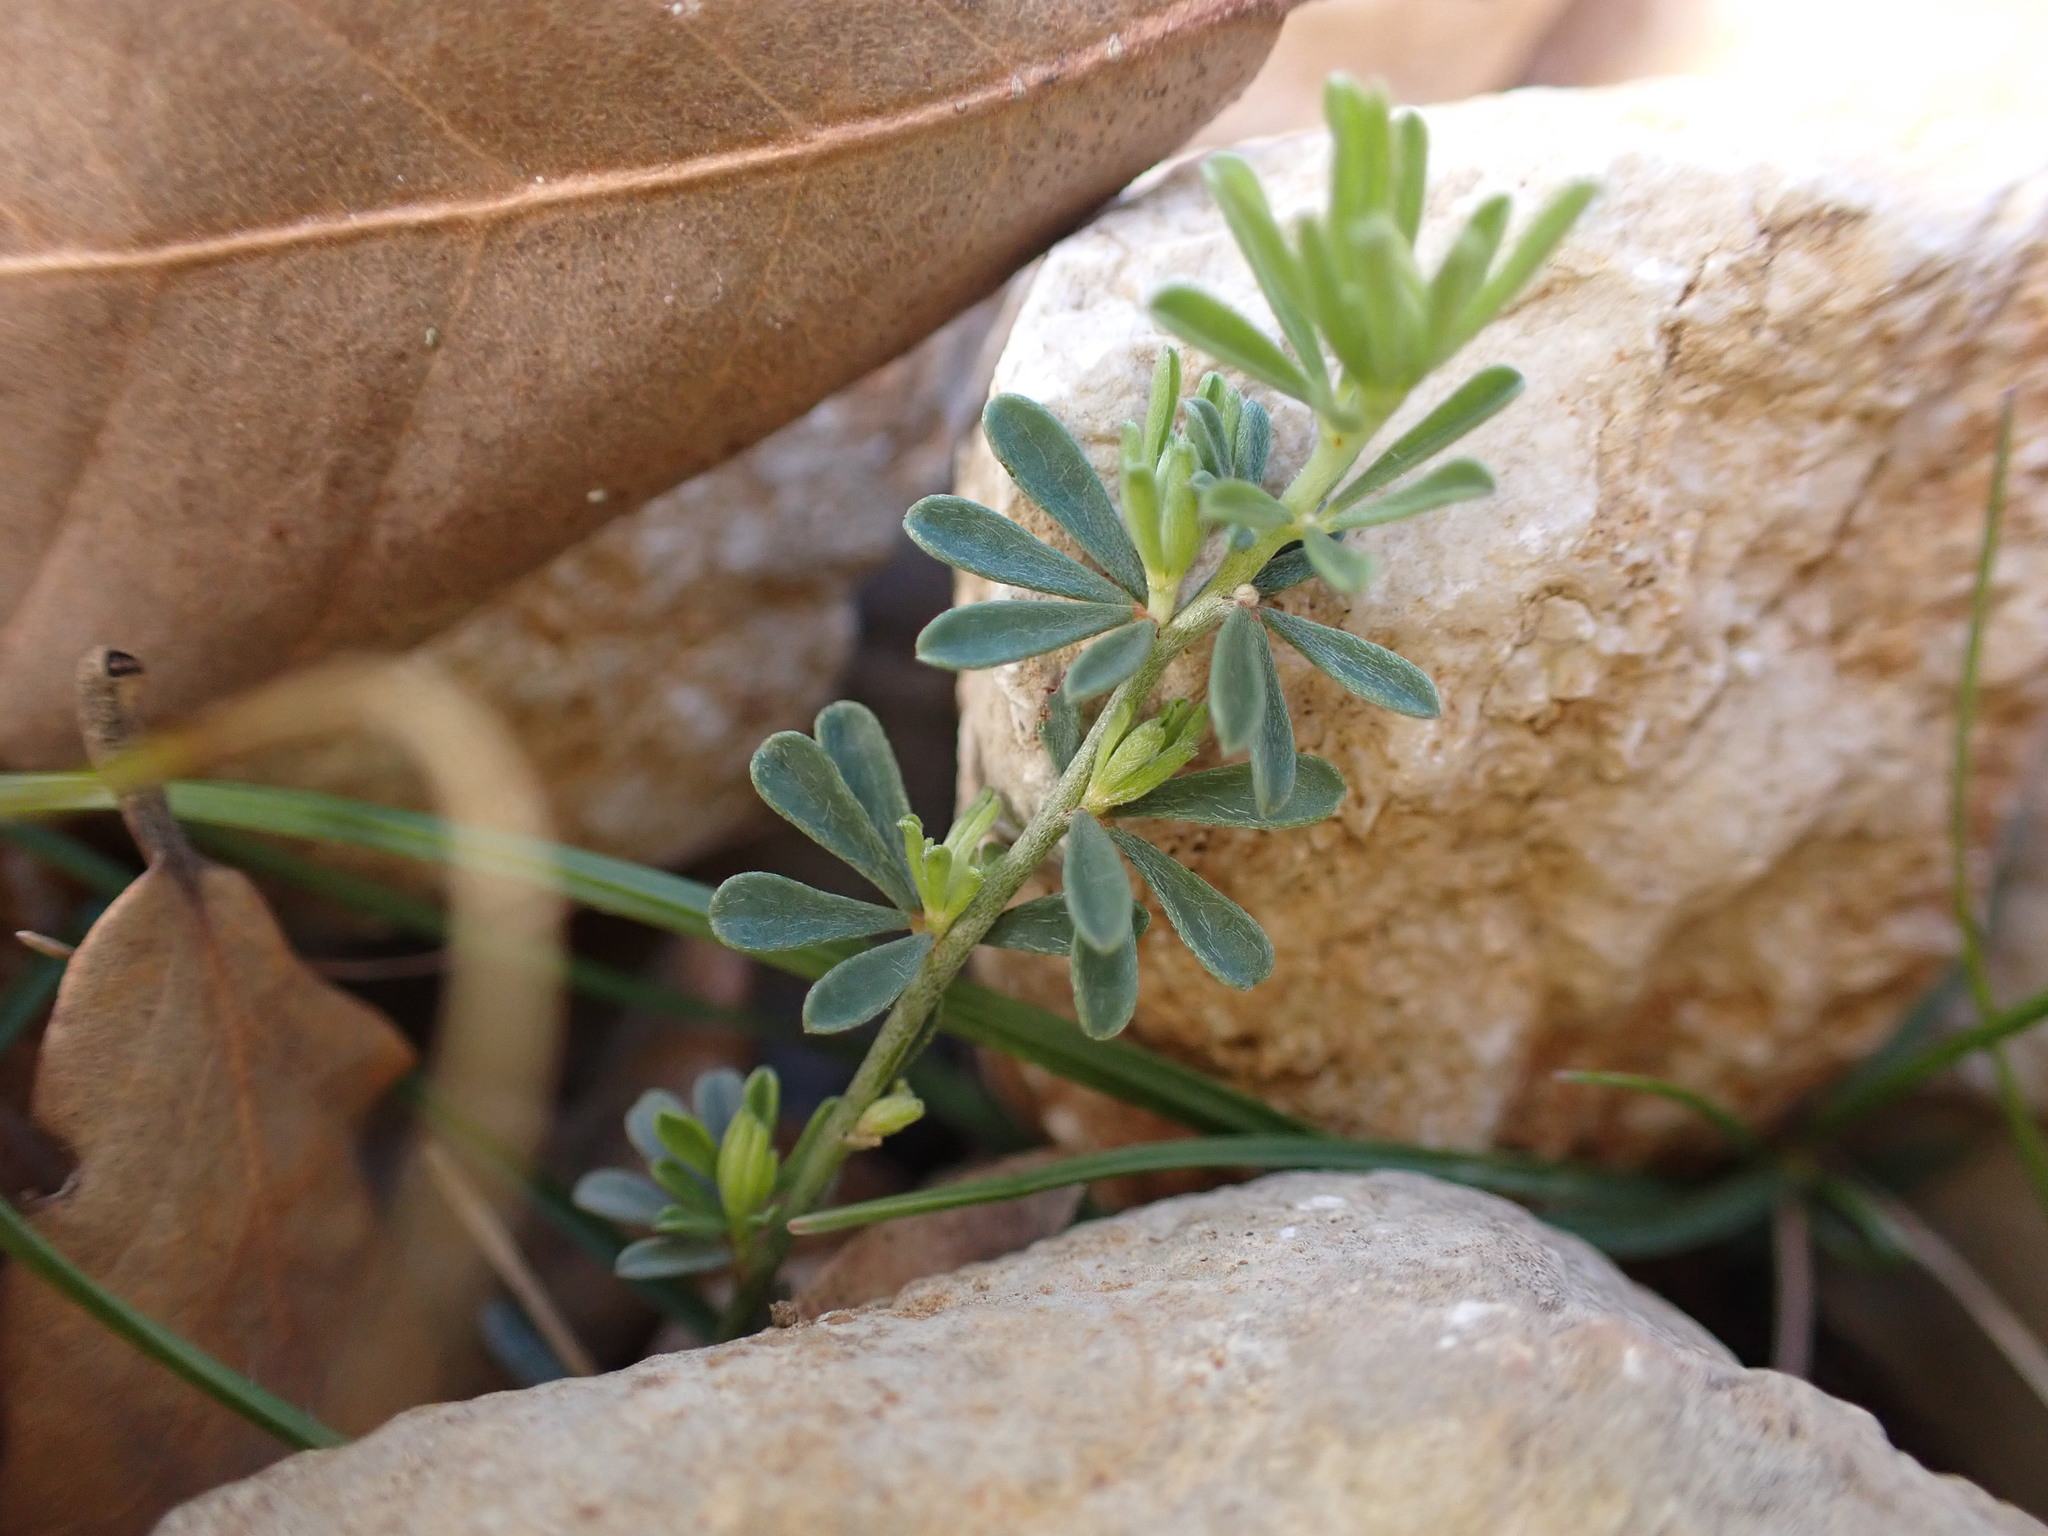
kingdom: Plantae
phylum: Tracheophyta
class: Magnoliopsida
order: Fabales
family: Fabaceae
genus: Lotus
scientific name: Lotus dorycnium
